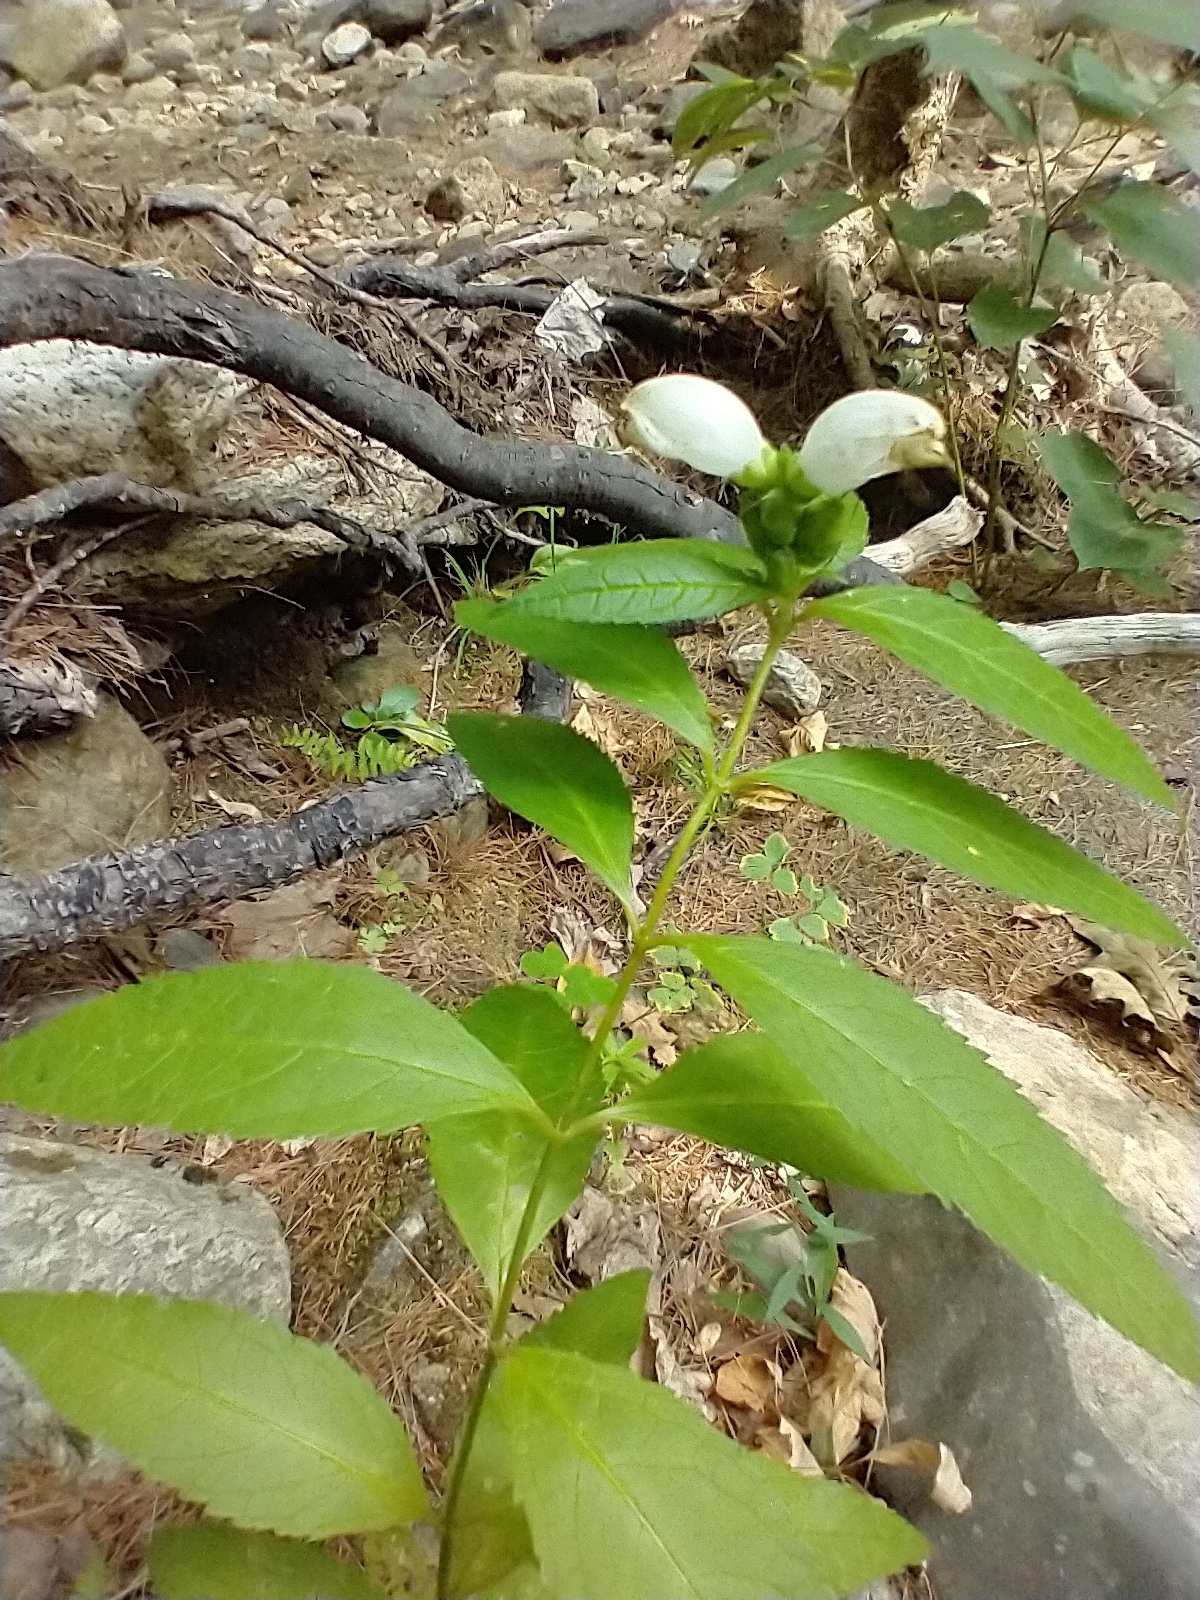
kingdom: Plantae
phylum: Tracheophyta
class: Magnoliopsida
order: Lamiales
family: Plantaginaceae
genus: Chelone
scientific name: Chelone glabra
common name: Snakehead
